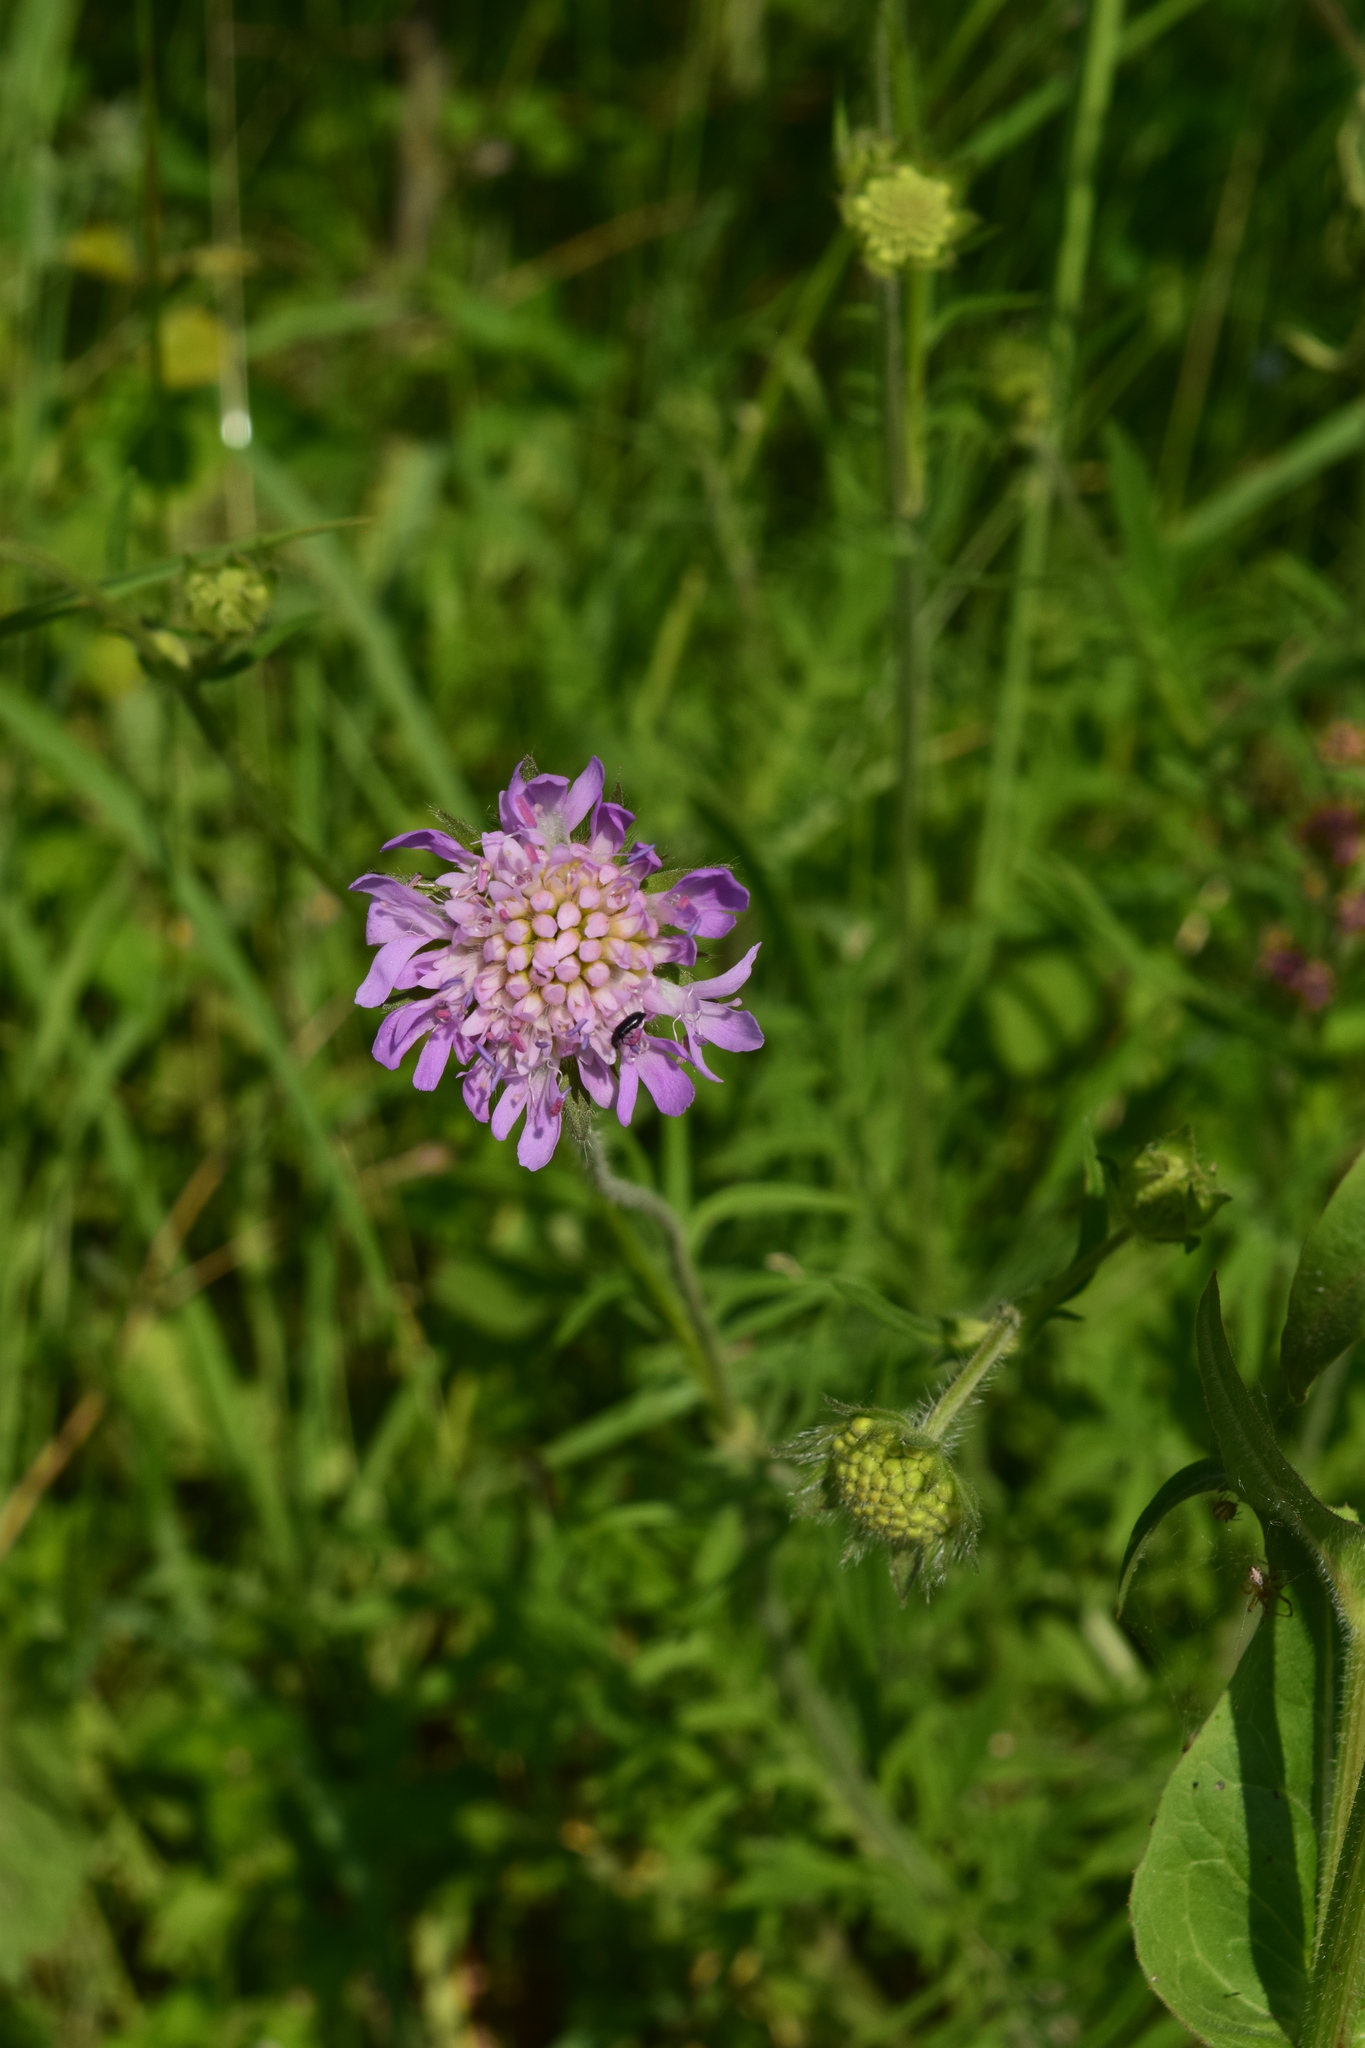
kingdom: Plantae
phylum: Tracheophyta
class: Magnoliopsida
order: Dipsacales
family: Caprifoliaceae
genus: Knautia
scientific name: Knautia arvensis
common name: Field scabiosa
